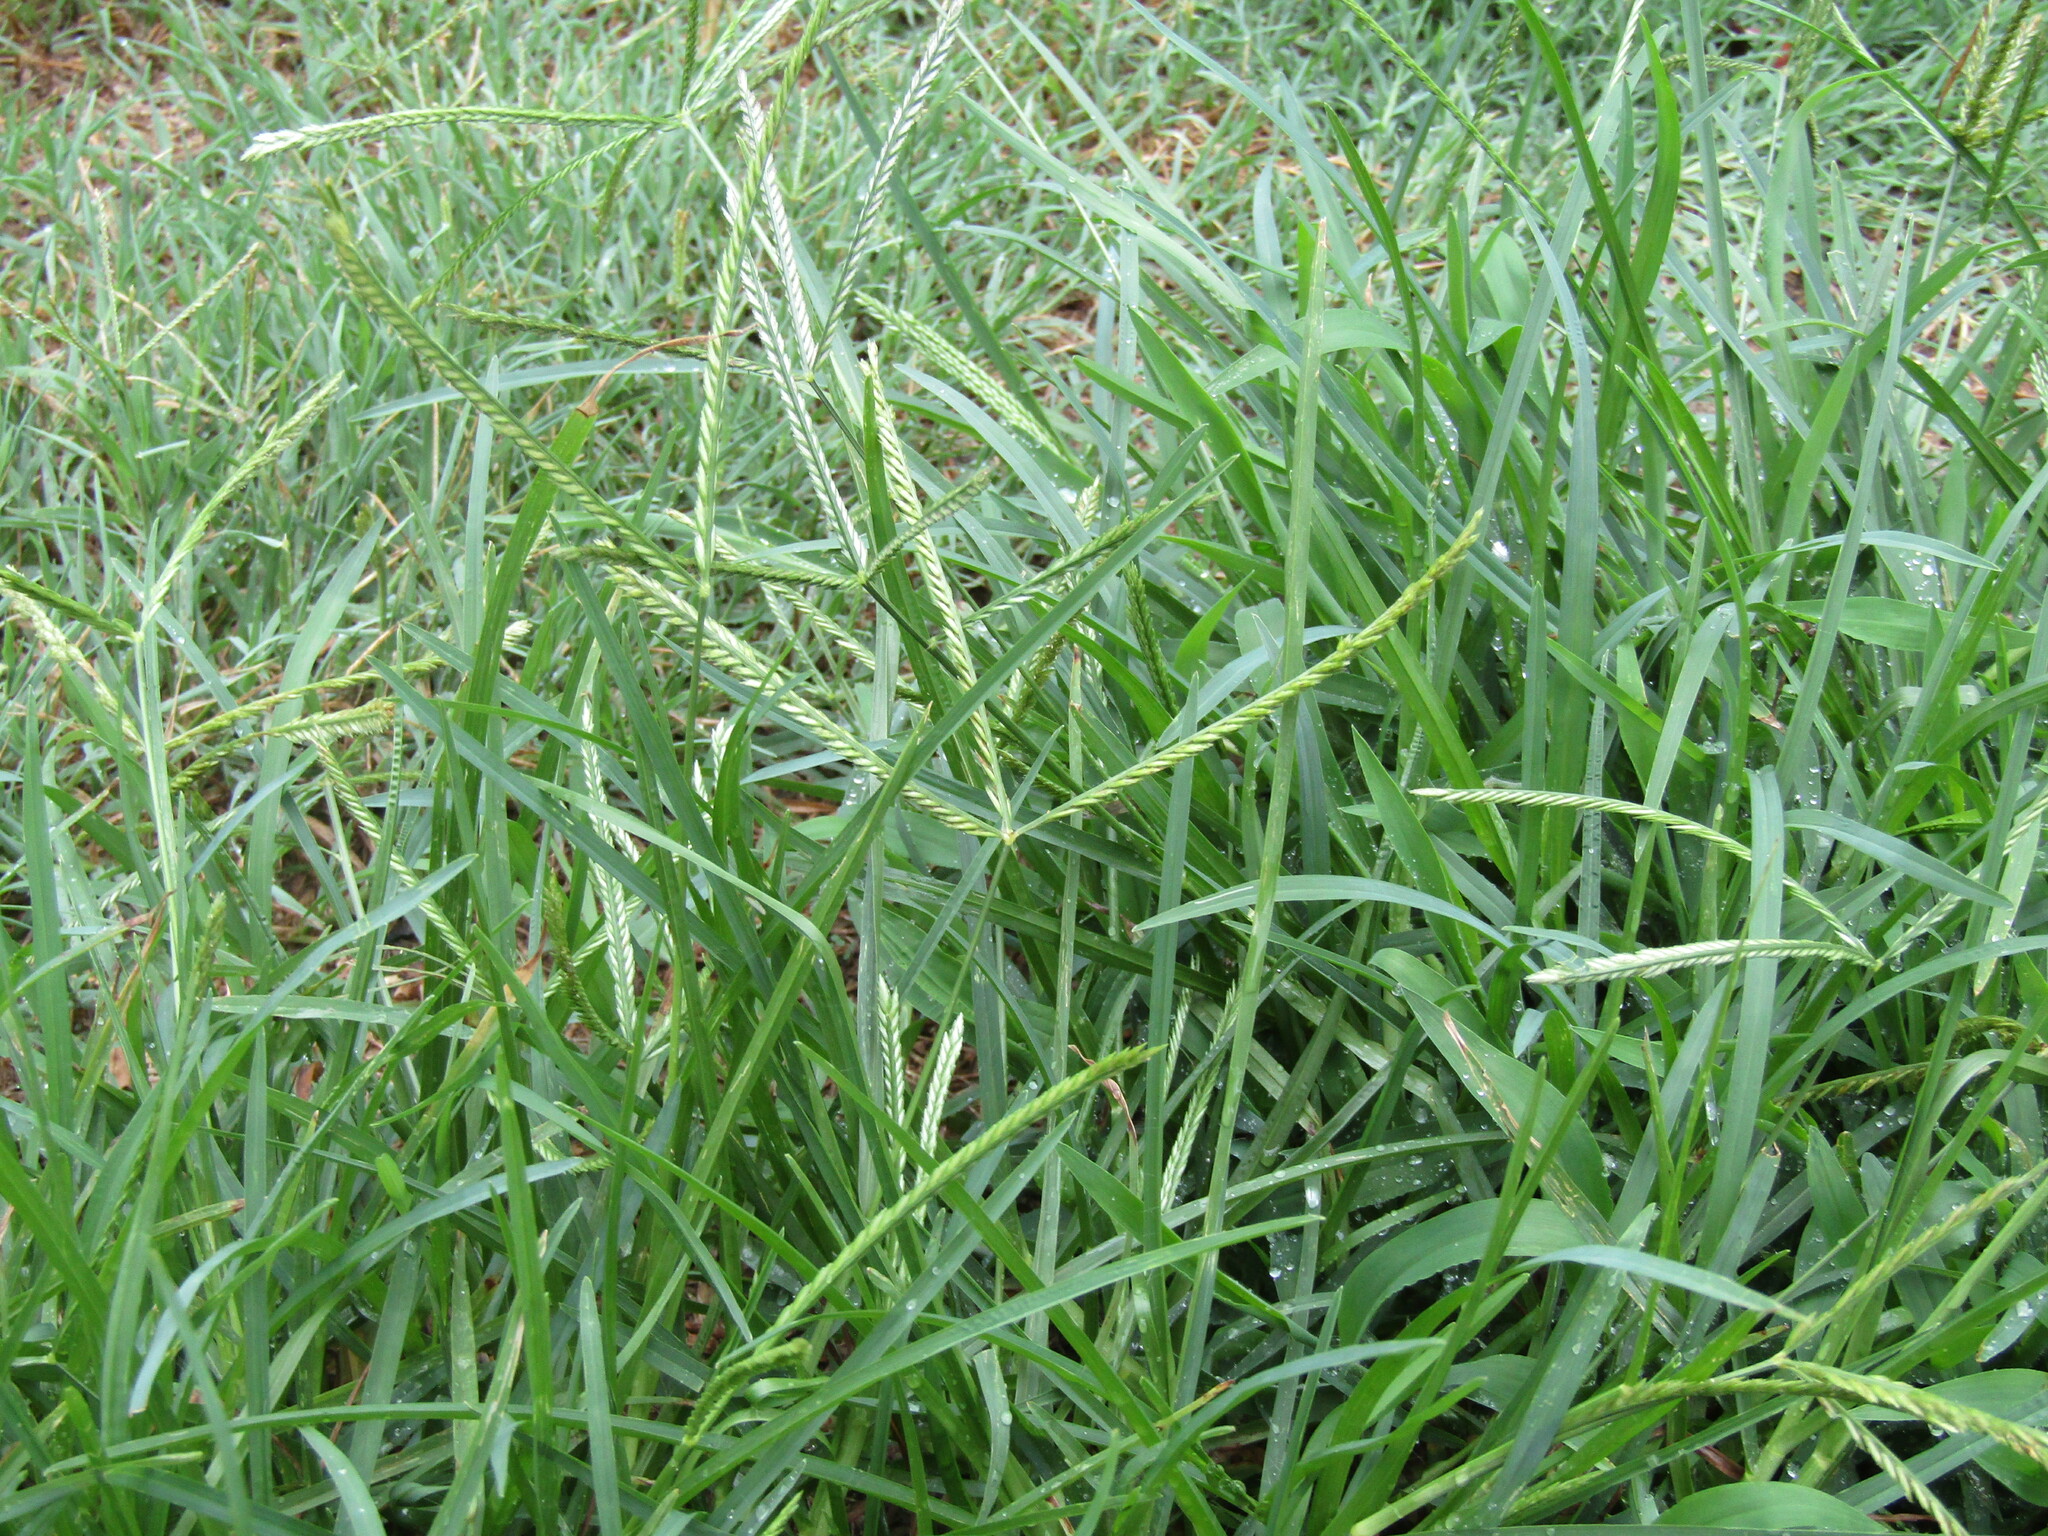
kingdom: Plantae
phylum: Tracheophyta
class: Liliopsida
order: Poales
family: Poaceae
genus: Eleusine
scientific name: Eleusine indica
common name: Yard-grass
